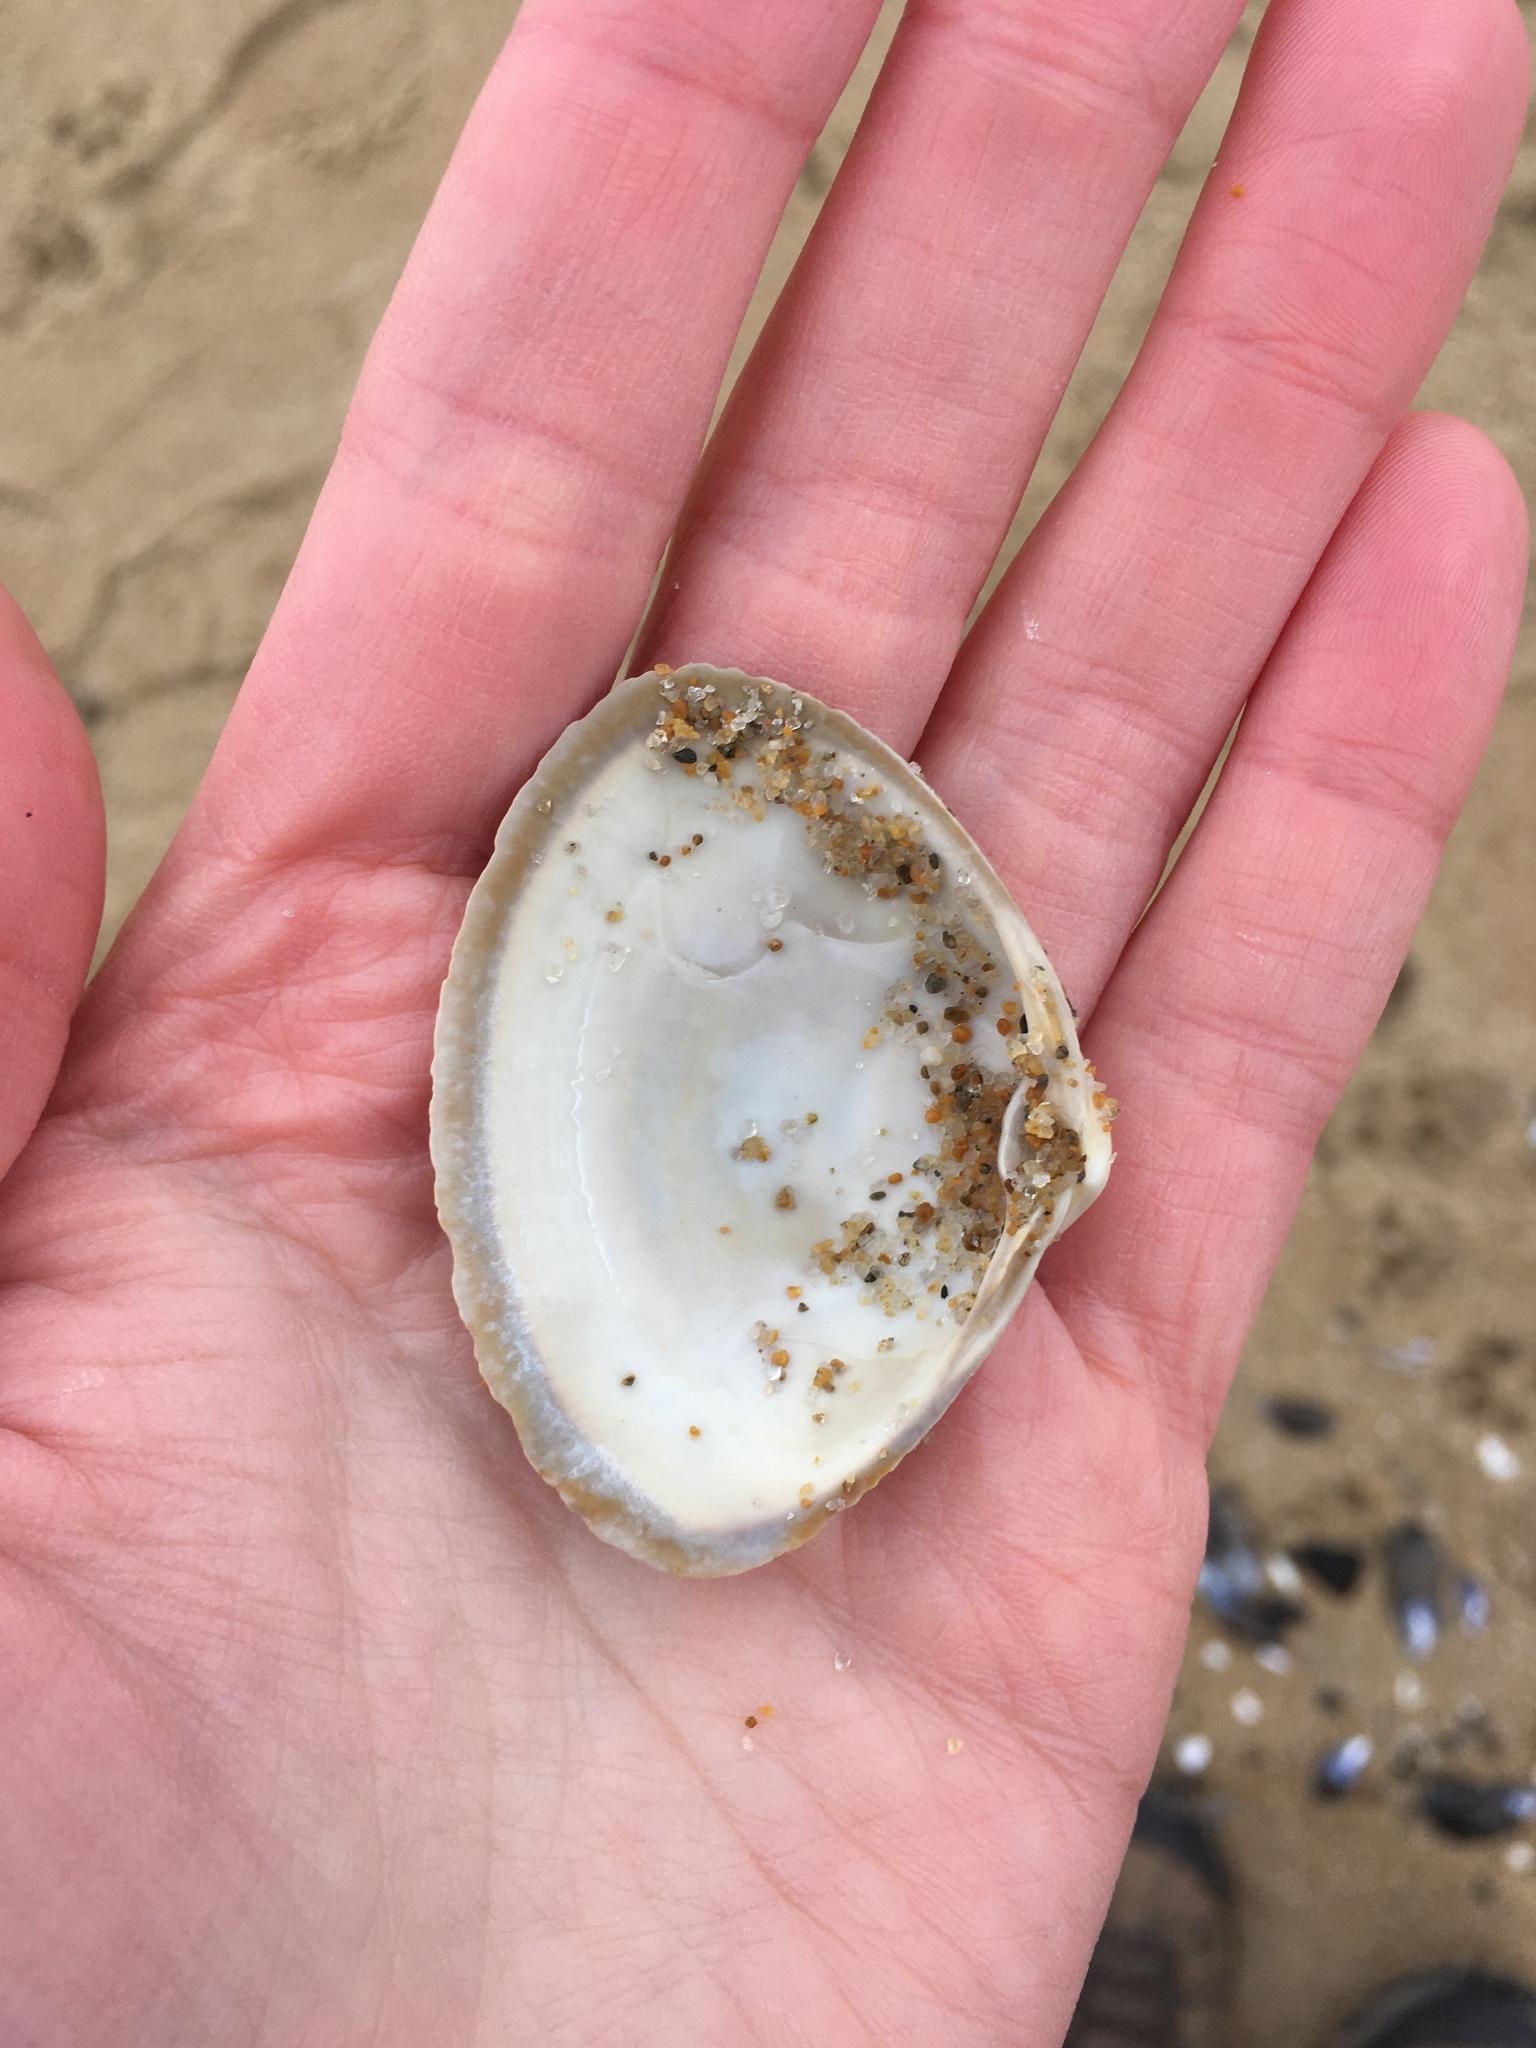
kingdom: Animalia
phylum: Mollusca
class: Bivalvia
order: Venerida
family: Mactridae
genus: Spisula
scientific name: Spisula solidissima
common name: Atlantic surf clam
